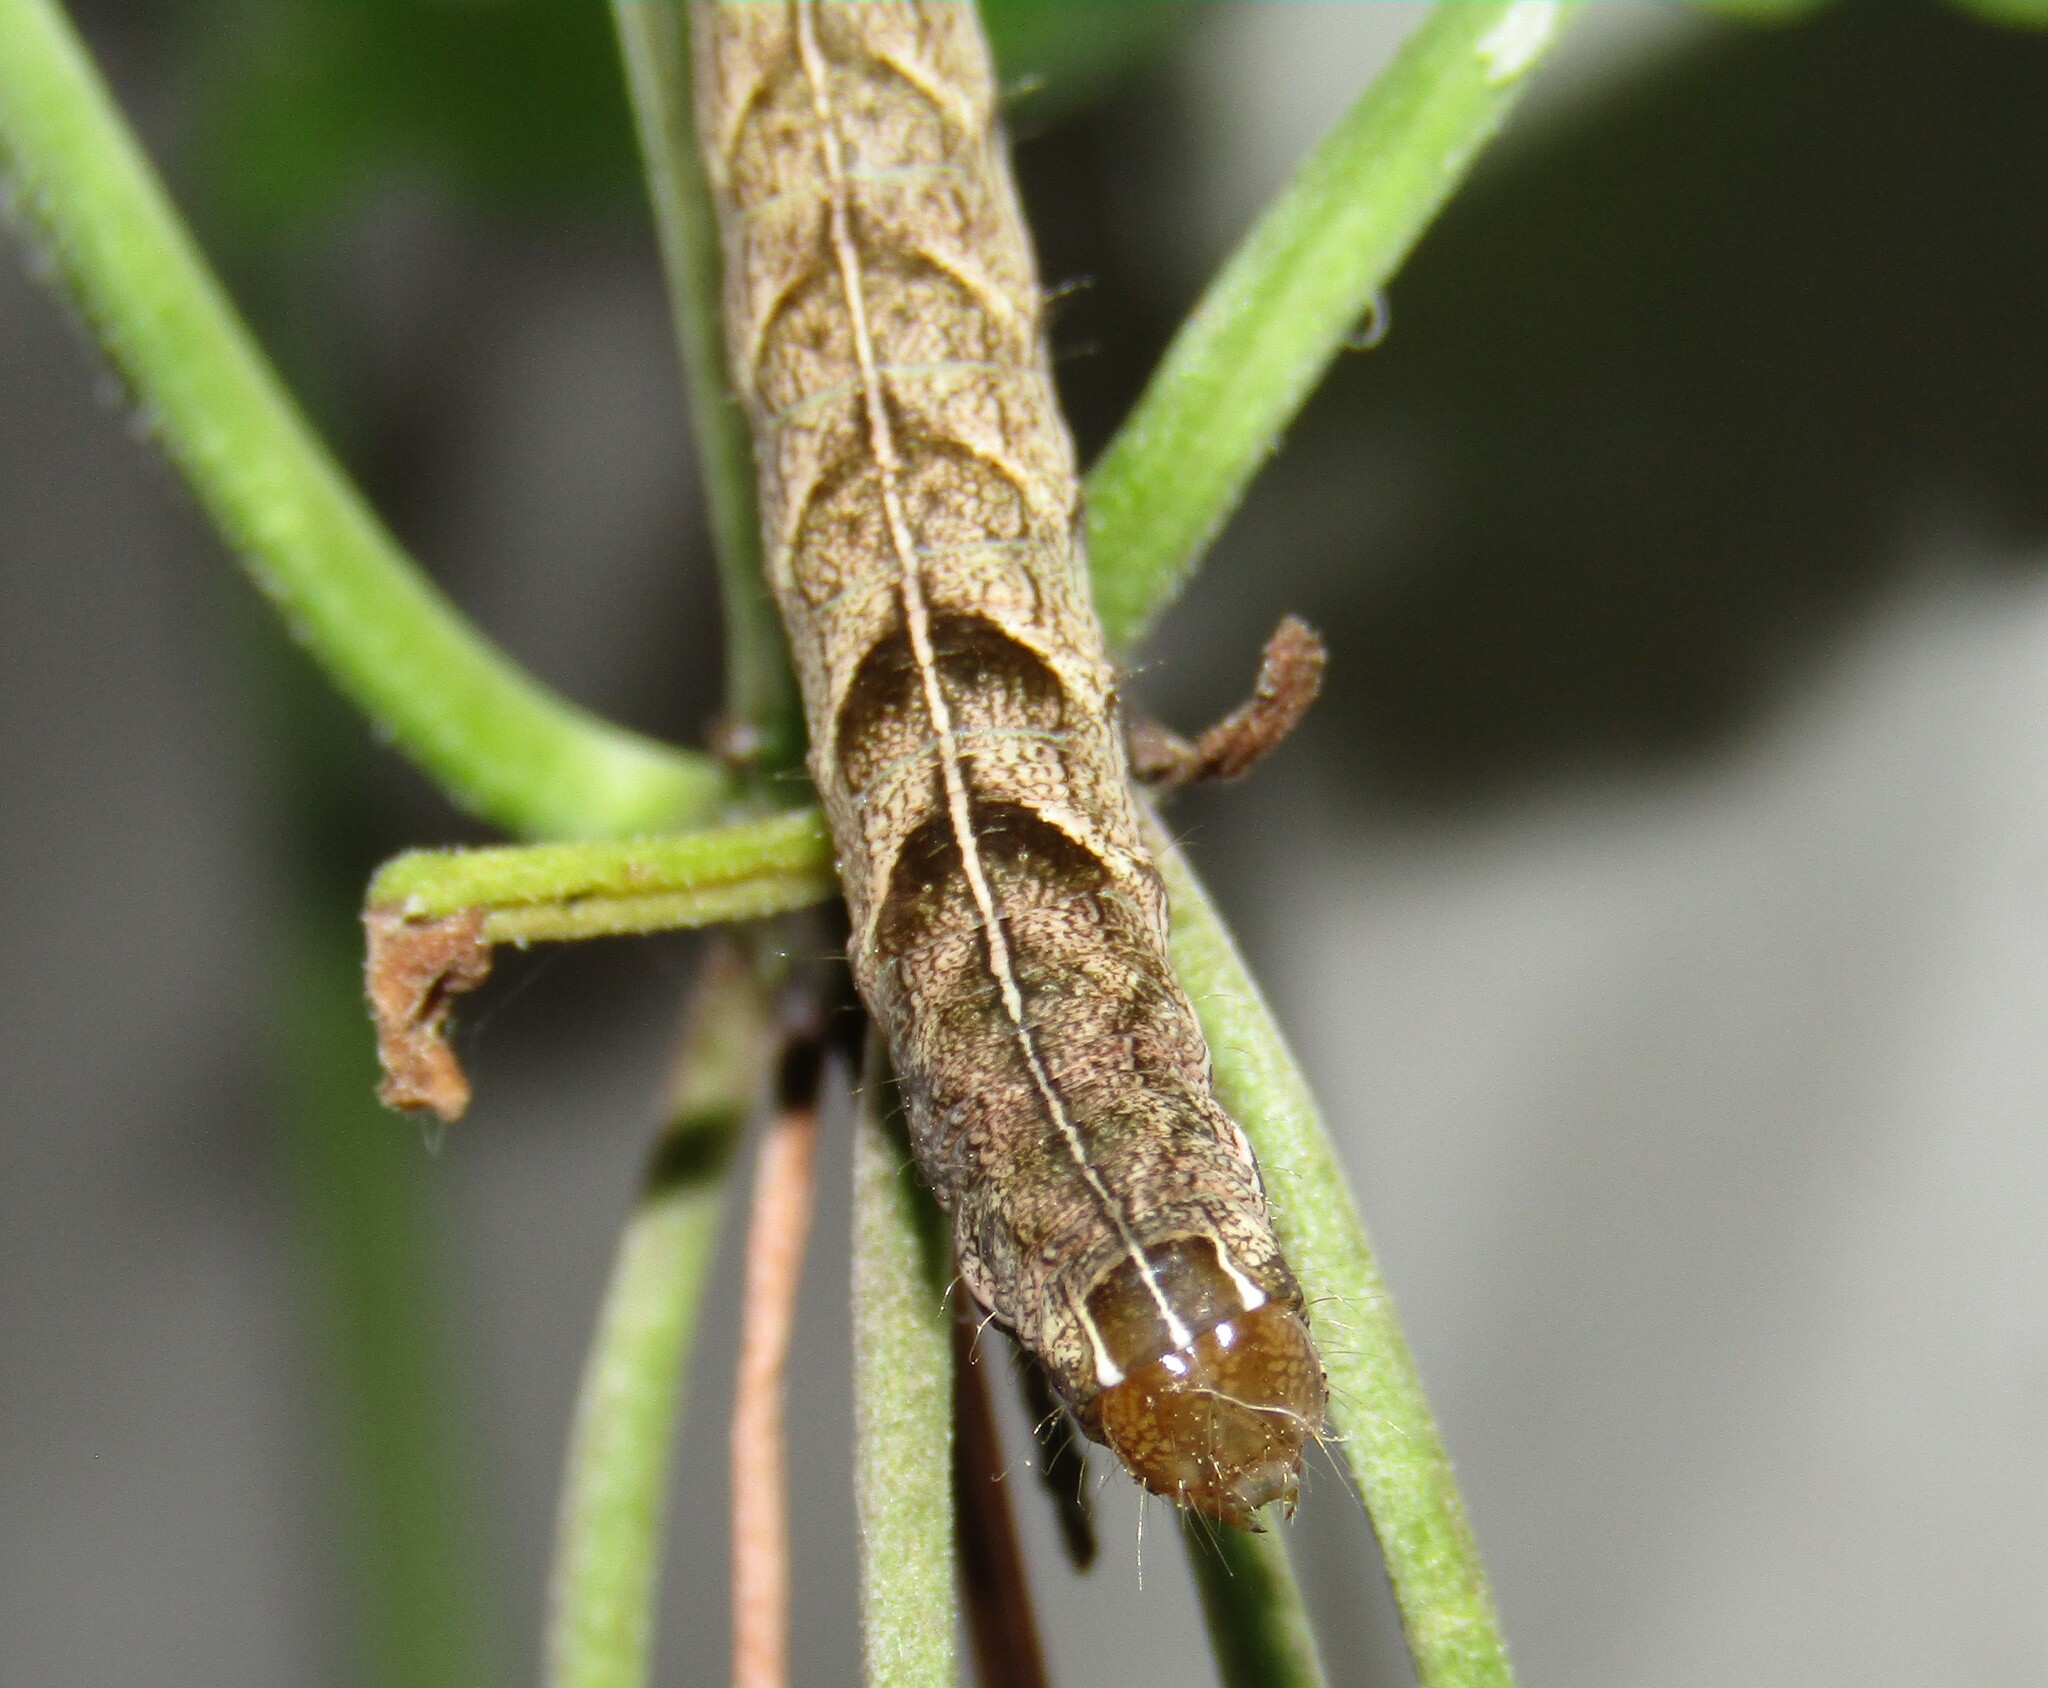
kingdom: Animalia
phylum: Arthropoda
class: Insecta
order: Lepidoptera
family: Noctuidae
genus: Melanchra
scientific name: Melanchra persicariae
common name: Dot moth
